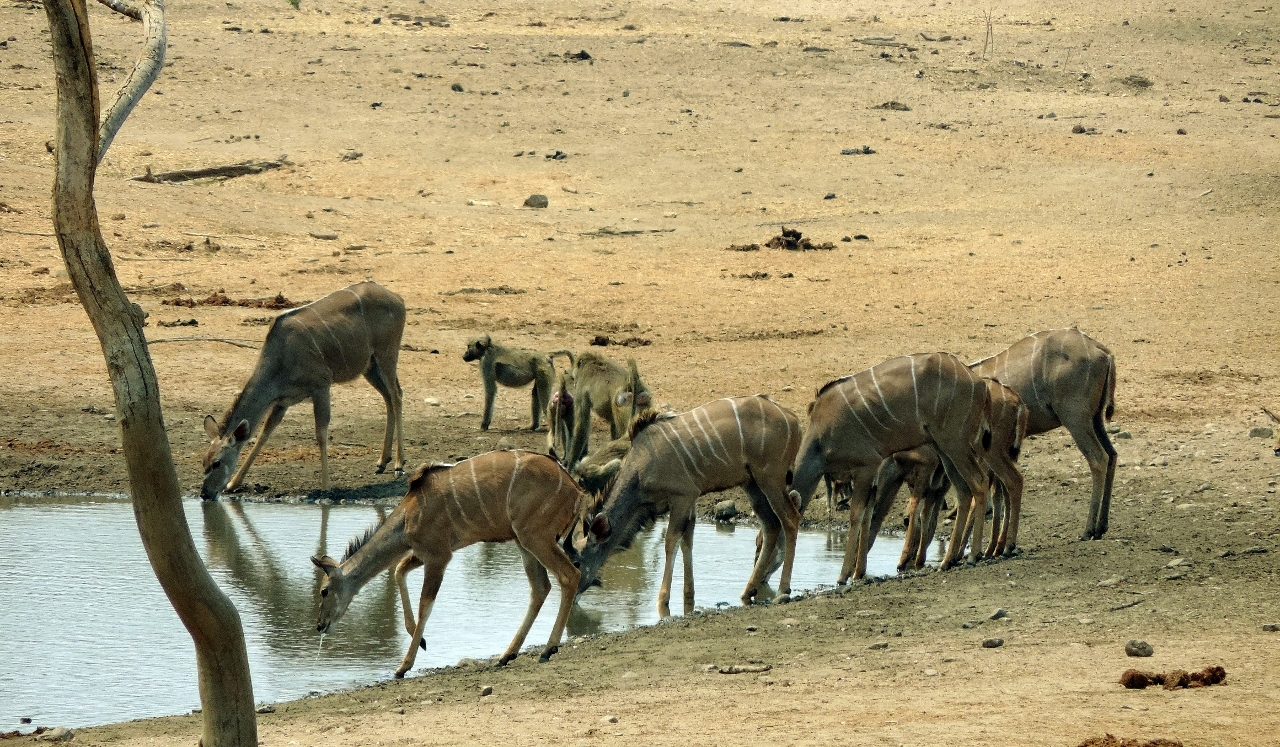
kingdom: Animalia
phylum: Chordata
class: Mammalia
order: Artiodactyla
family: Bovidae
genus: Tragelaphus
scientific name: Tragelaphus strepsiceros
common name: Greater kudu
